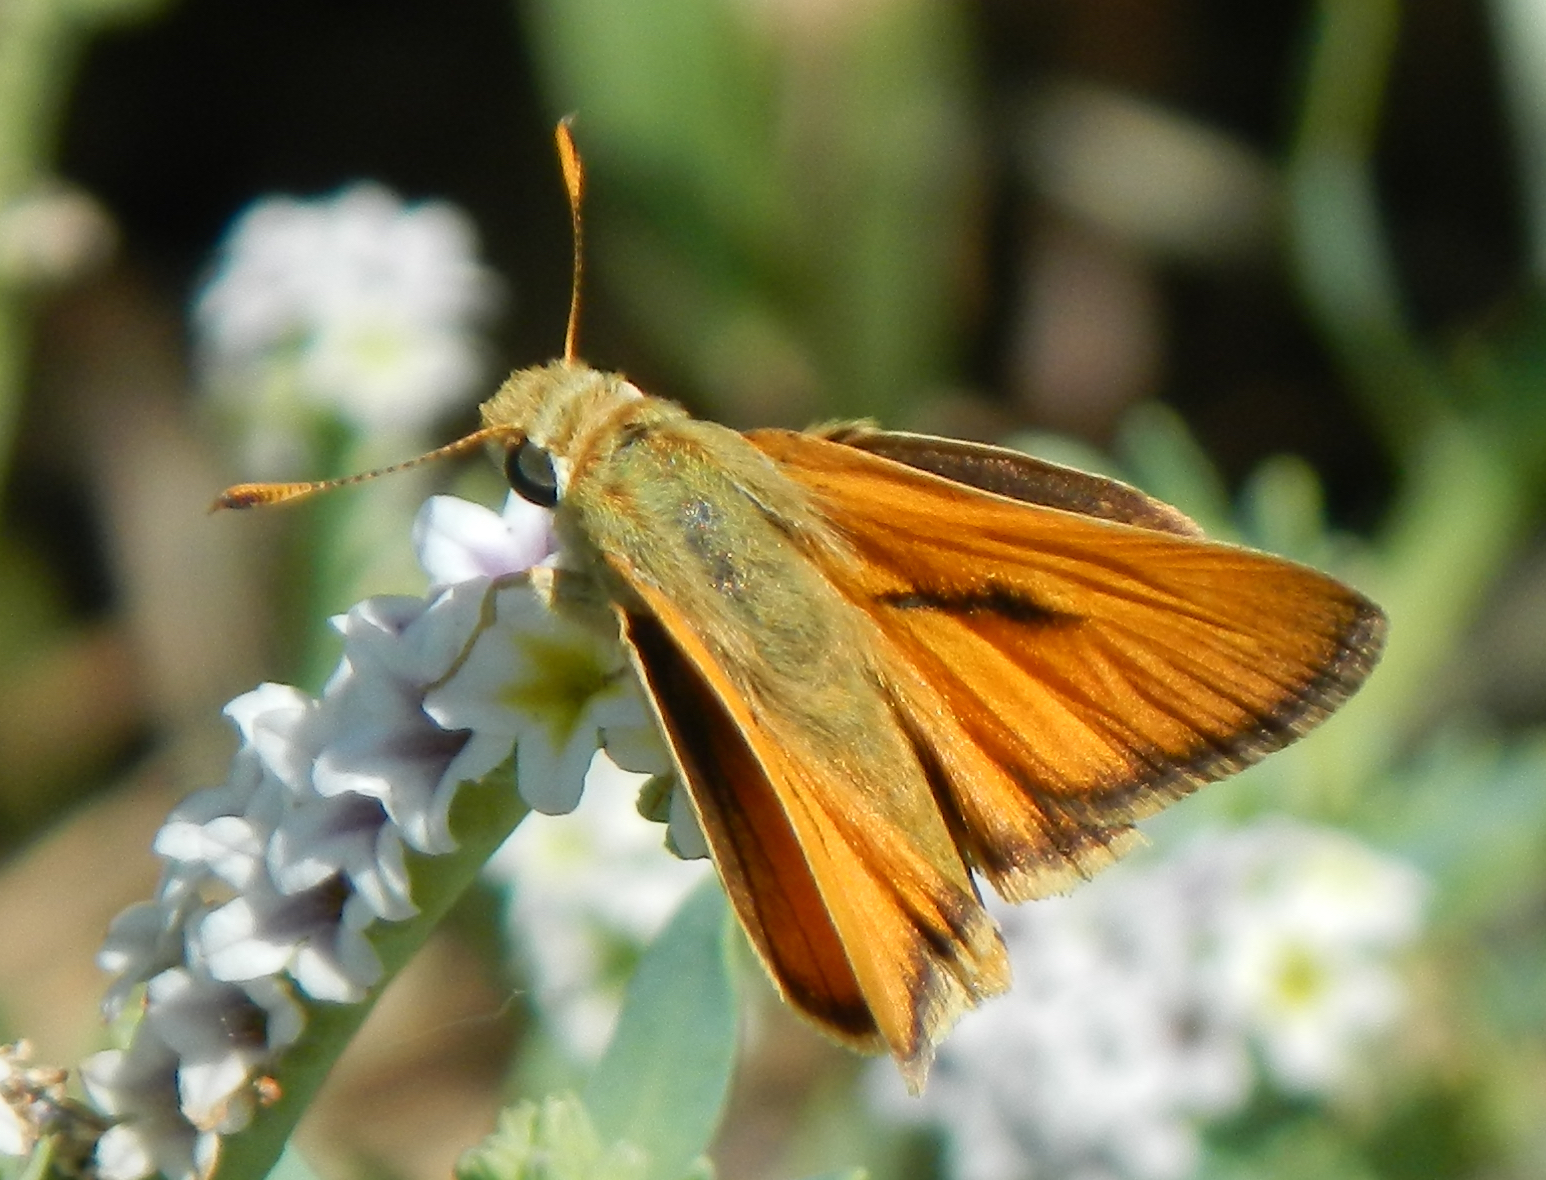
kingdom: Animalia
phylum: Arthropoda
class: Insecta
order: Lepidoptera
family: Hesperiidae
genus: Ochlodes
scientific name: Ochlodes sylvanoides
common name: Woodland skipper
